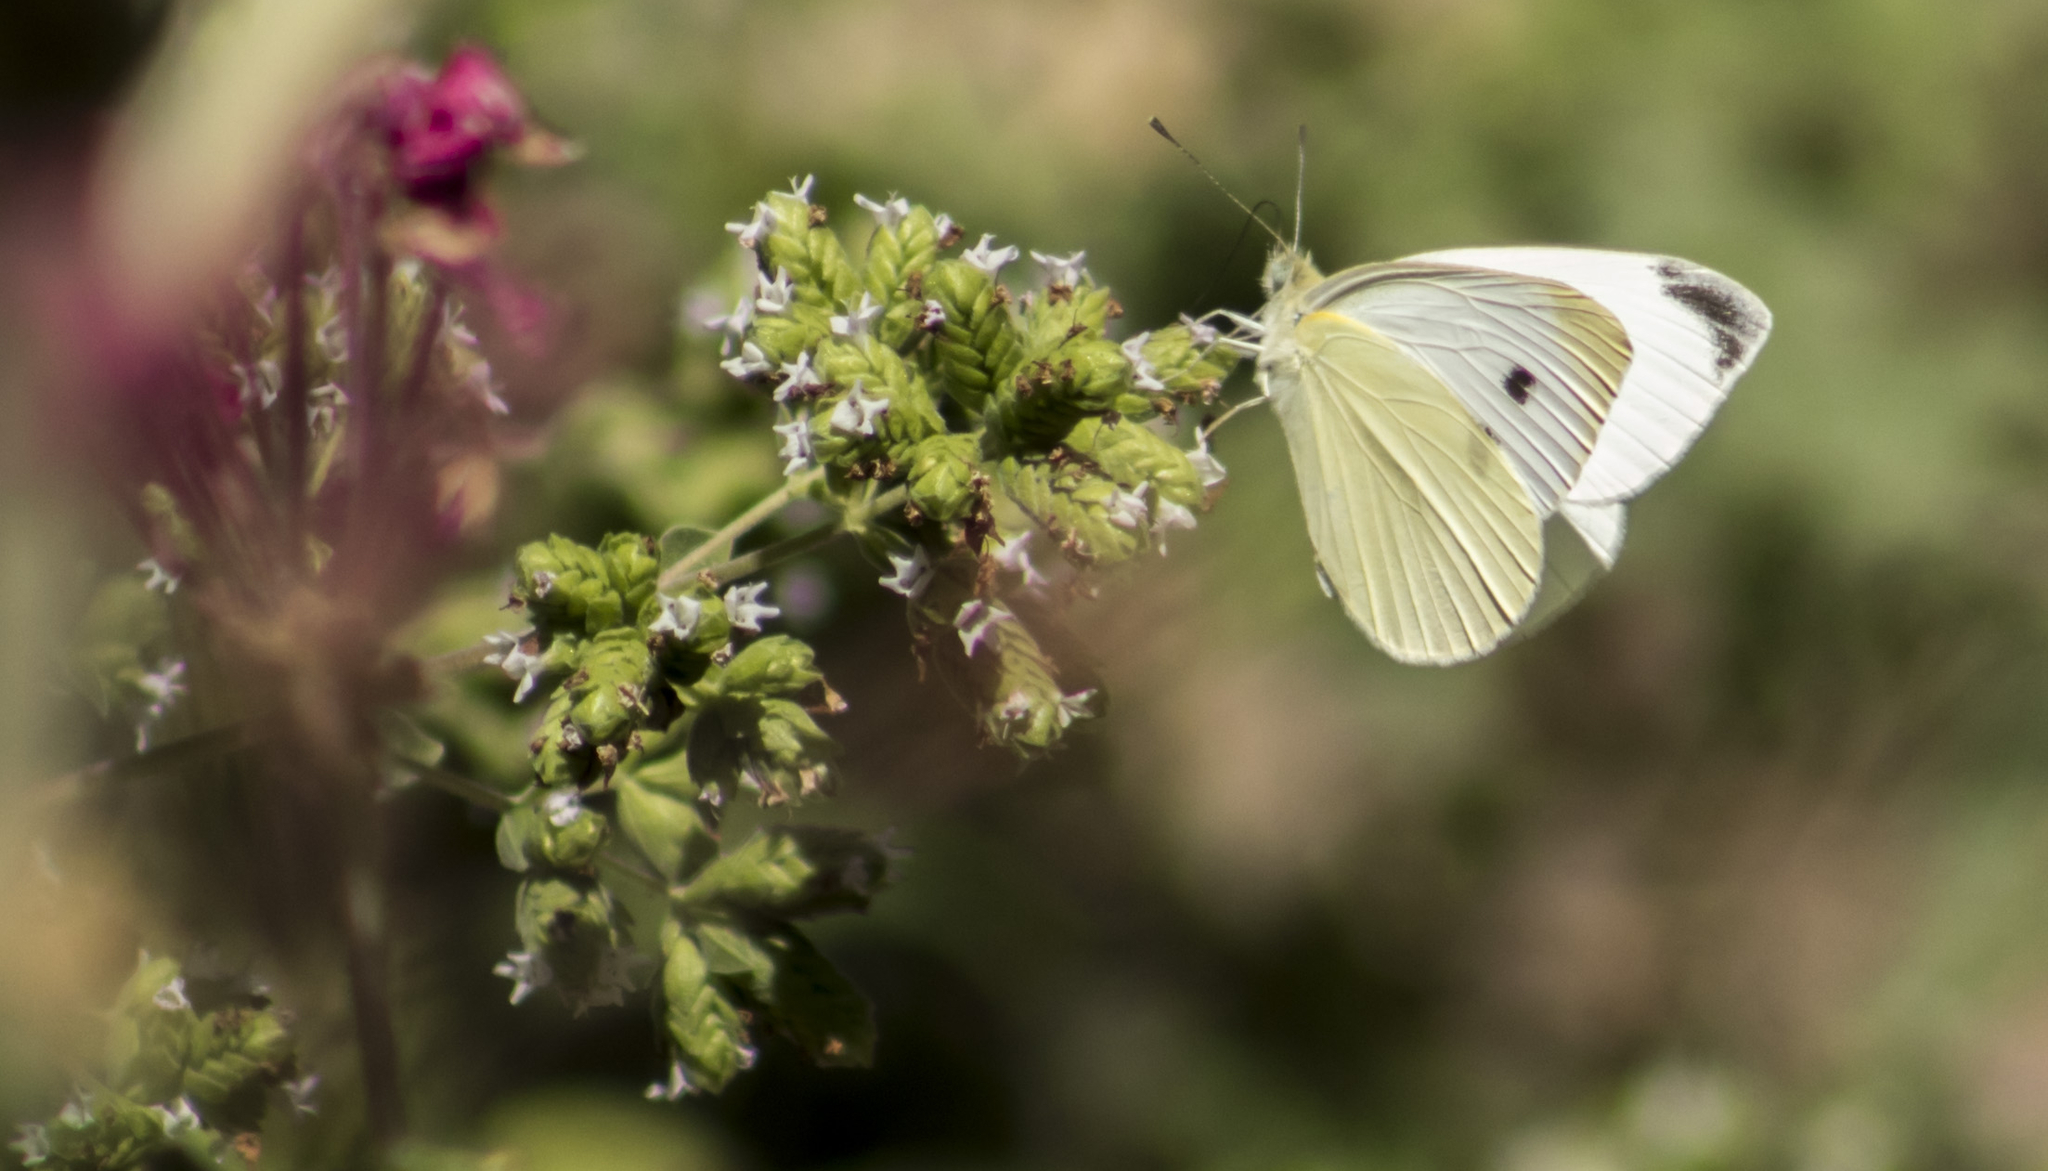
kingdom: Animalia
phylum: Arthropoda
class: Insecta
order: Lepidoptera
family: Pieridae
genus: Pieris
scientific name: Pieris rapae
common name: Small white
